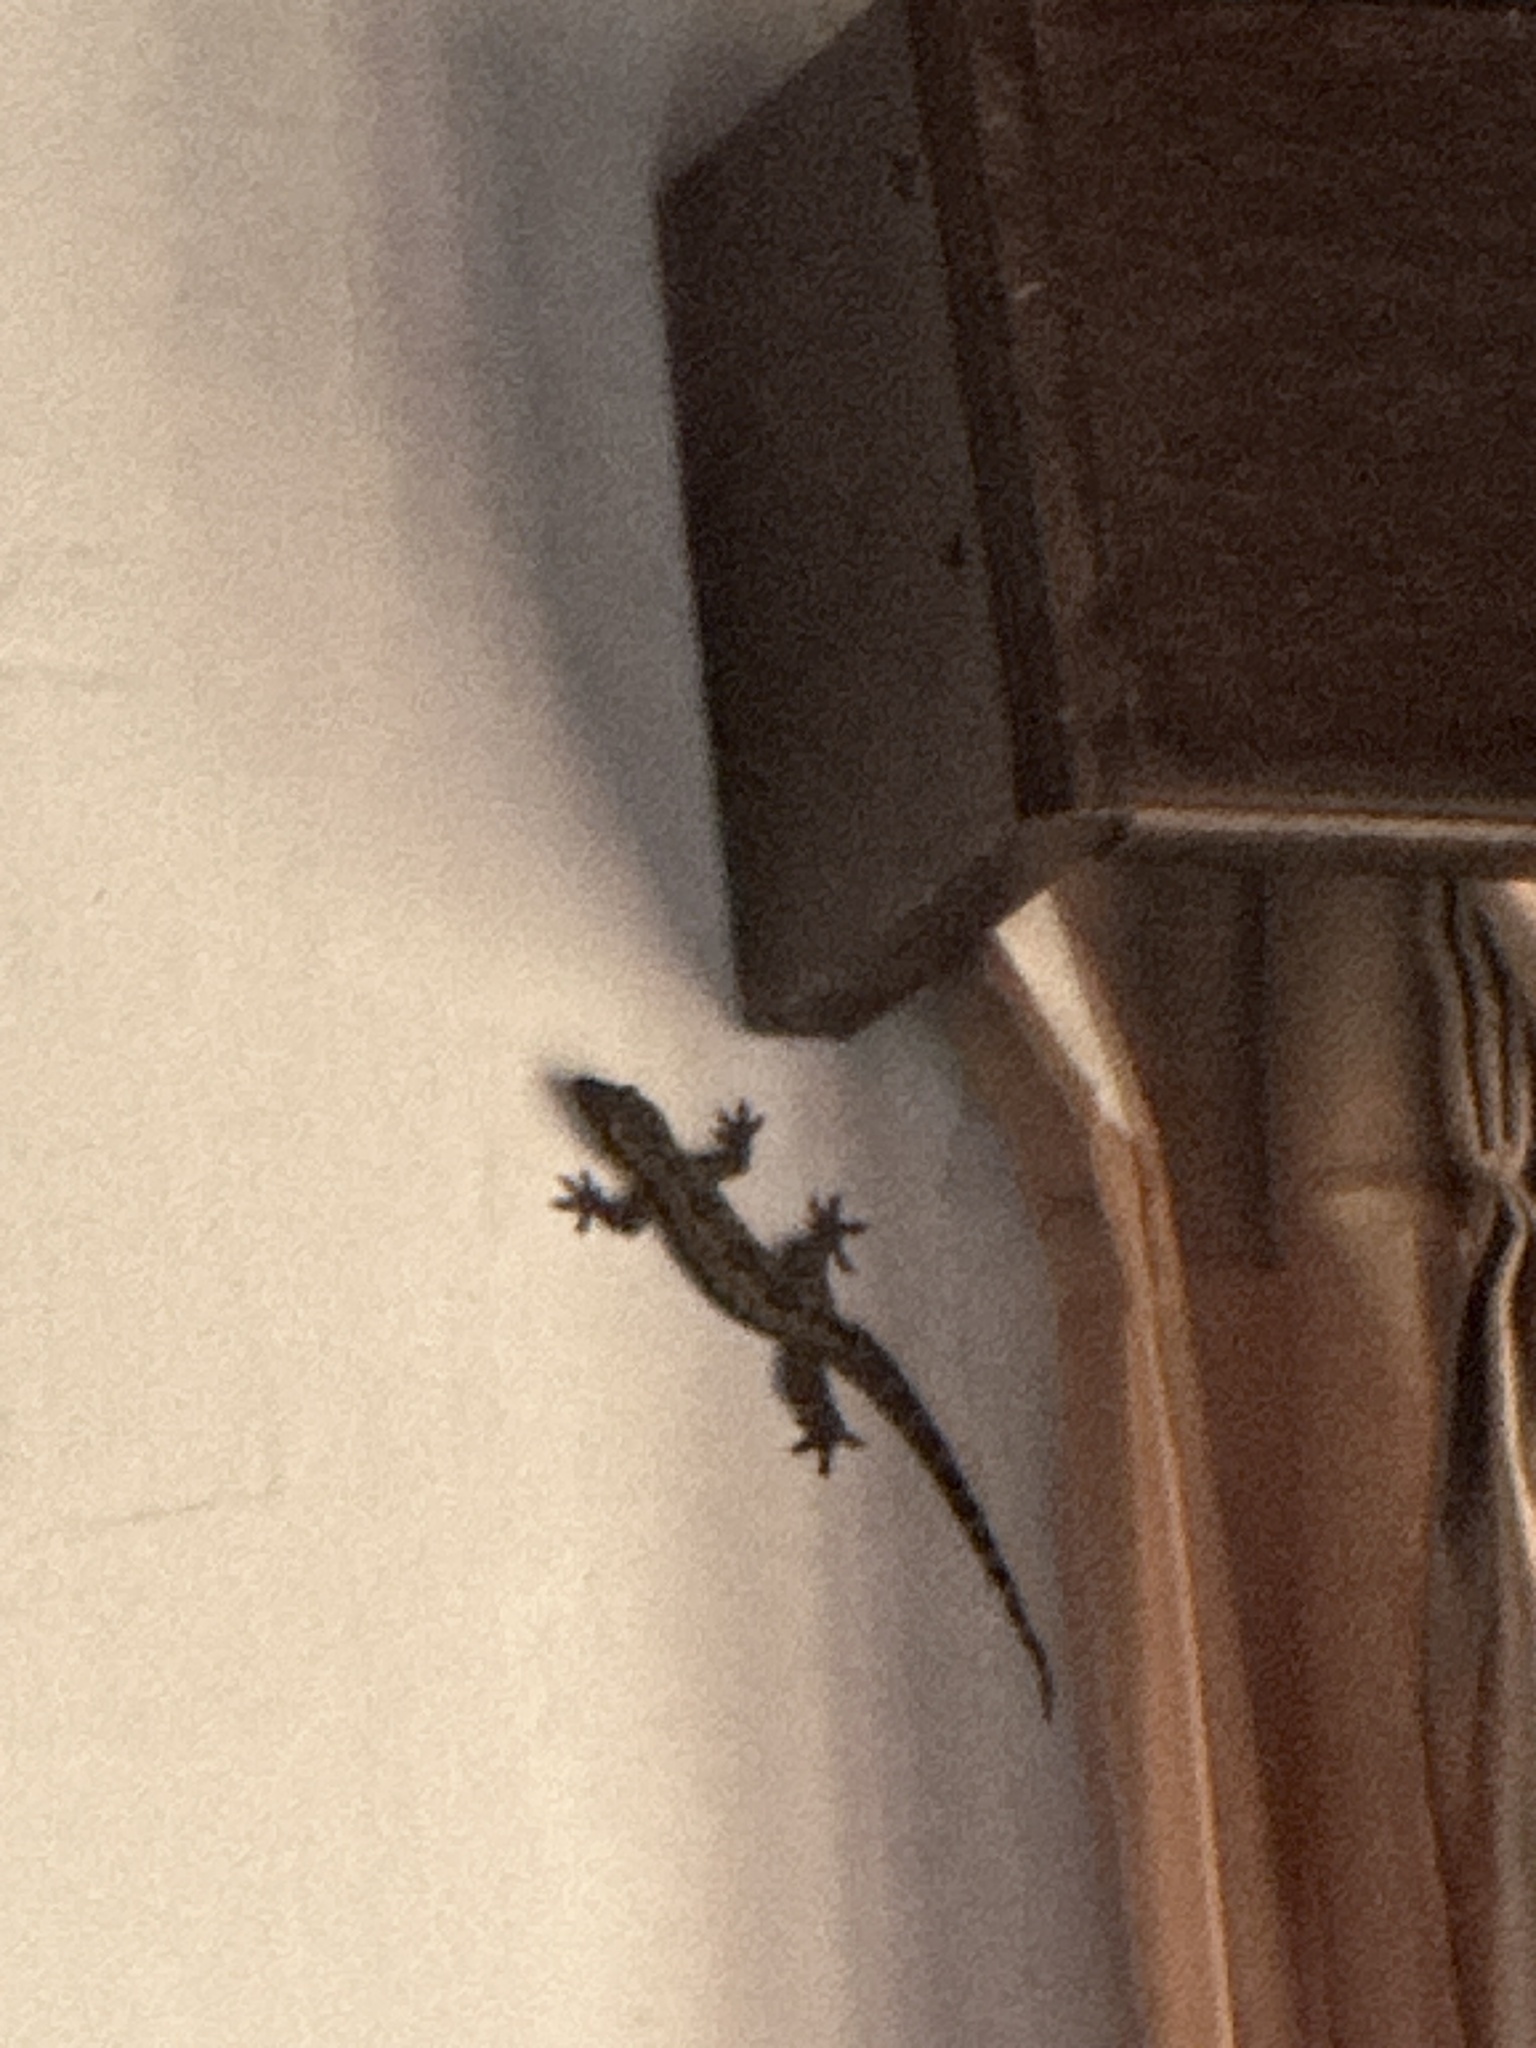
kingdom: Animalia
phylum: Chordata
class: Squamata
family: Gekkonidae
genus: Hemidactylus
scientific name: Hemidactylus platyurus
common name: Flat-tailed house gecko
